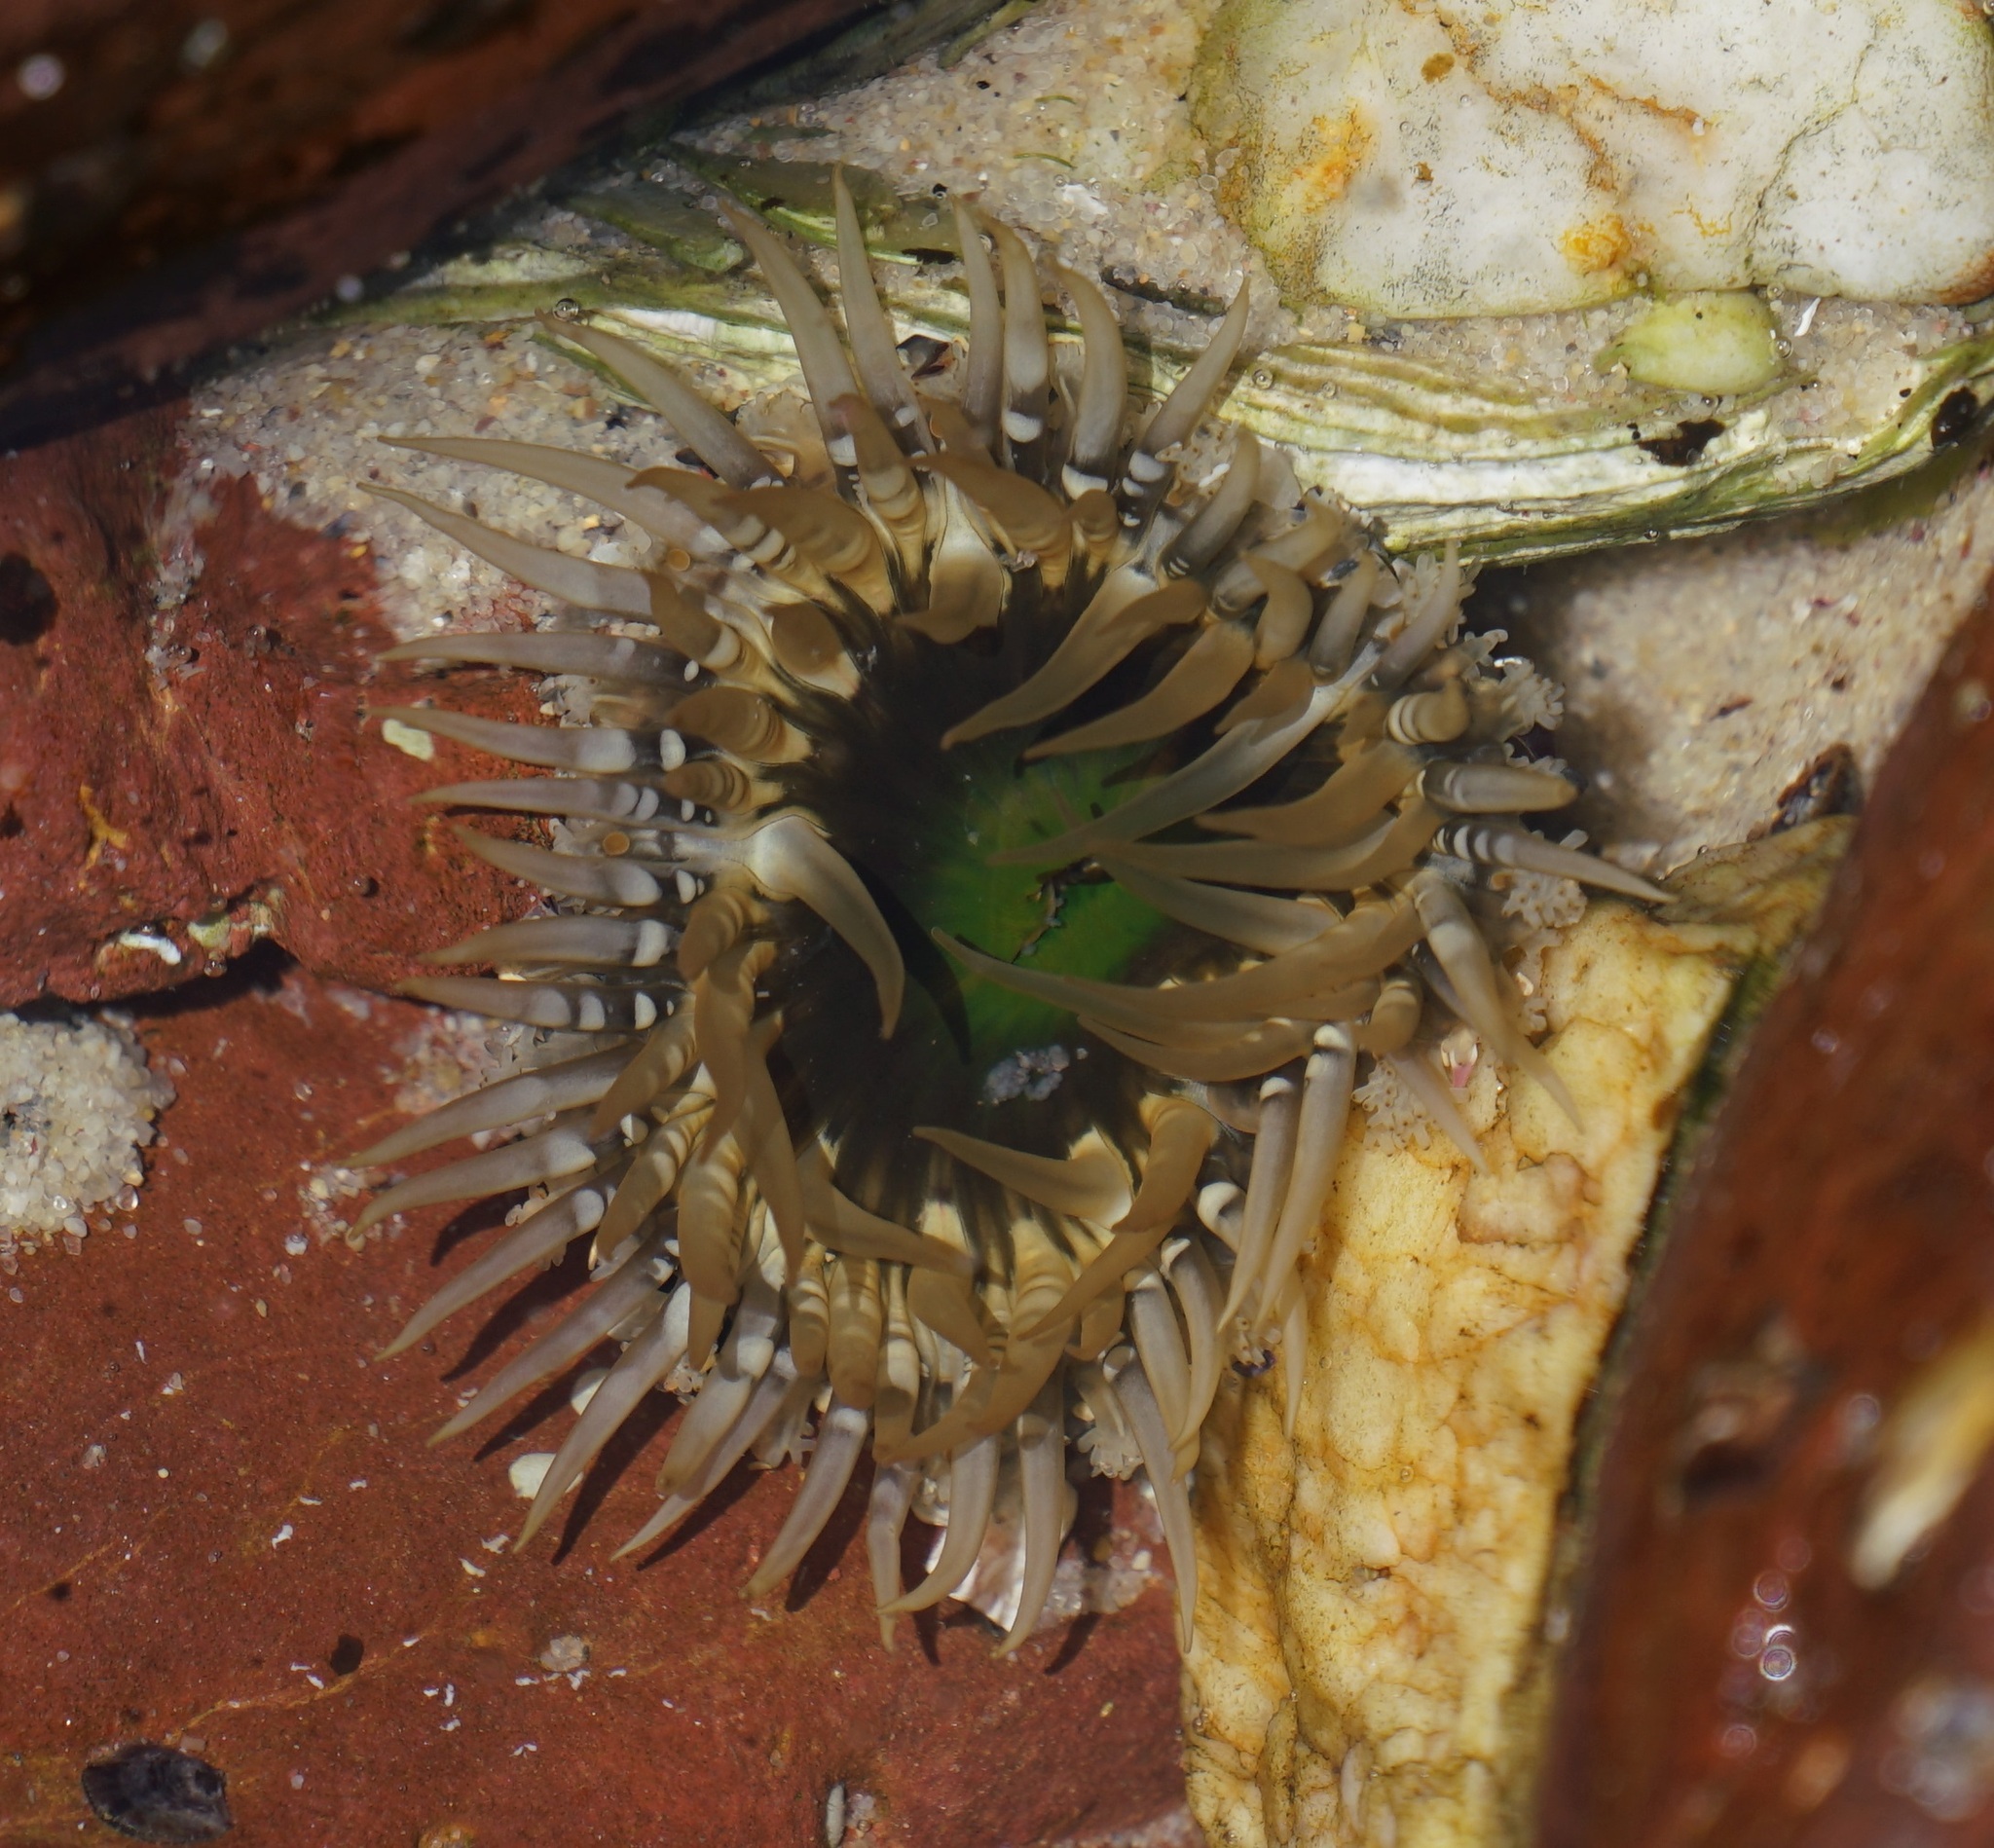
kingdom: Animalia
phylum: Cnidaria
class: Anthozoa
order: Actiniaria
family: Actiniidae
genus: Oulactis
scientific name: Oulactis muscosa
